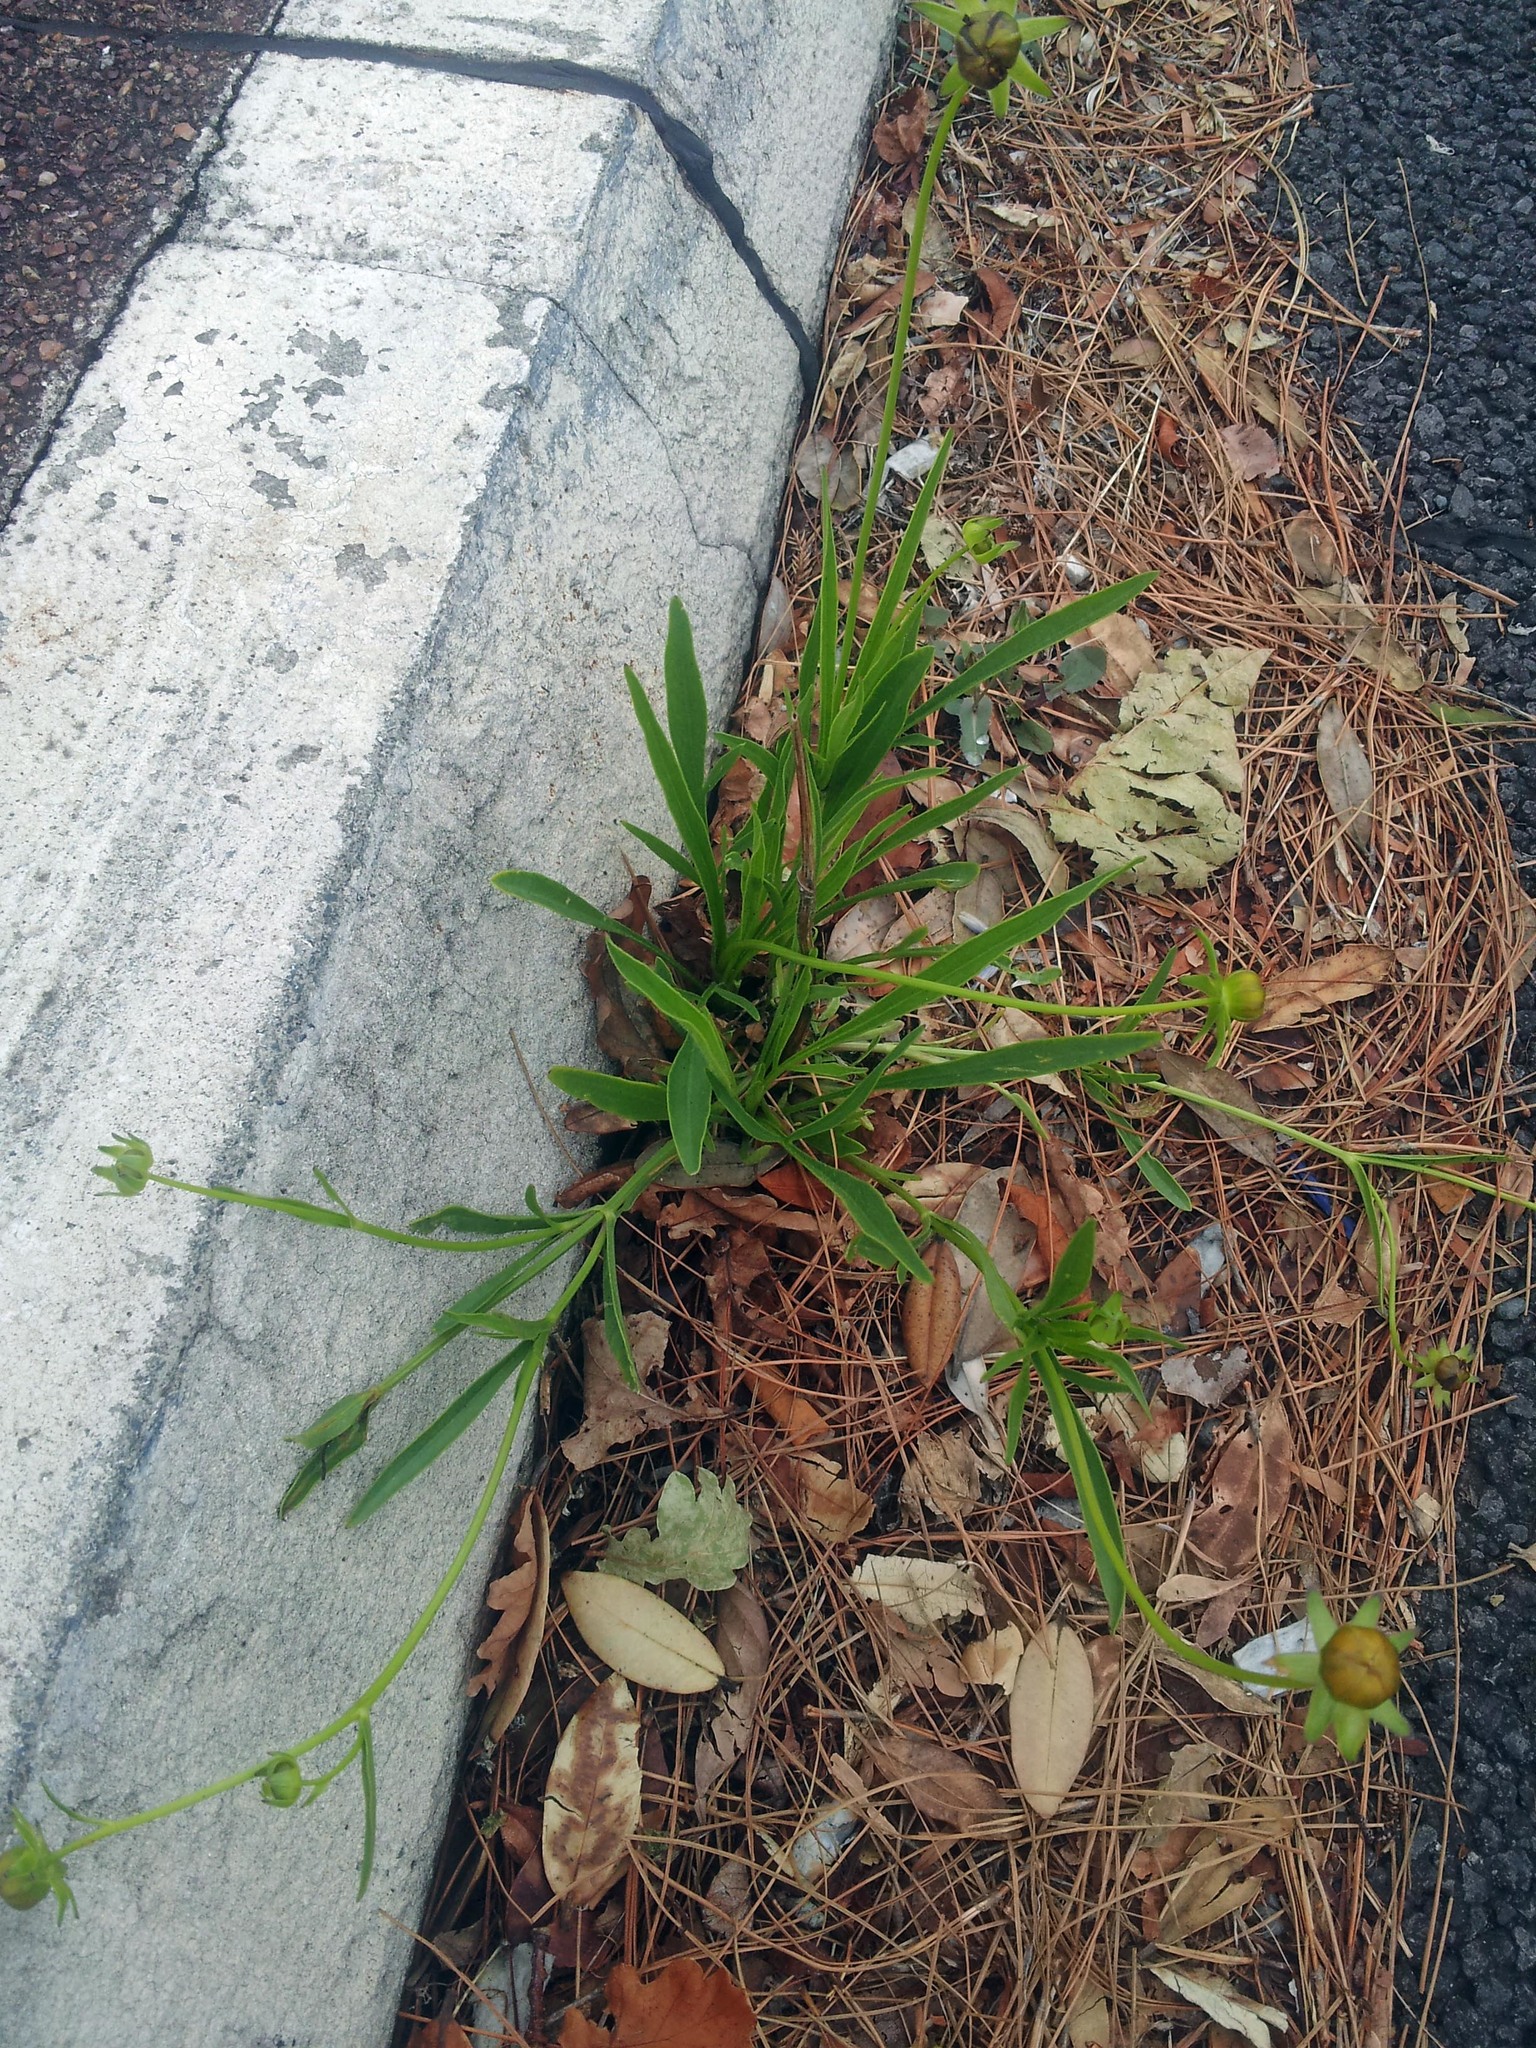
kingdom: Plantae
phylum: Tracheophyta
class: Magnoliopsida
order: Asterales
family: Asteraceae
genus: Coreopsis
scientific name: Coreopsis lanceolata
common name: Garden coreopsis
